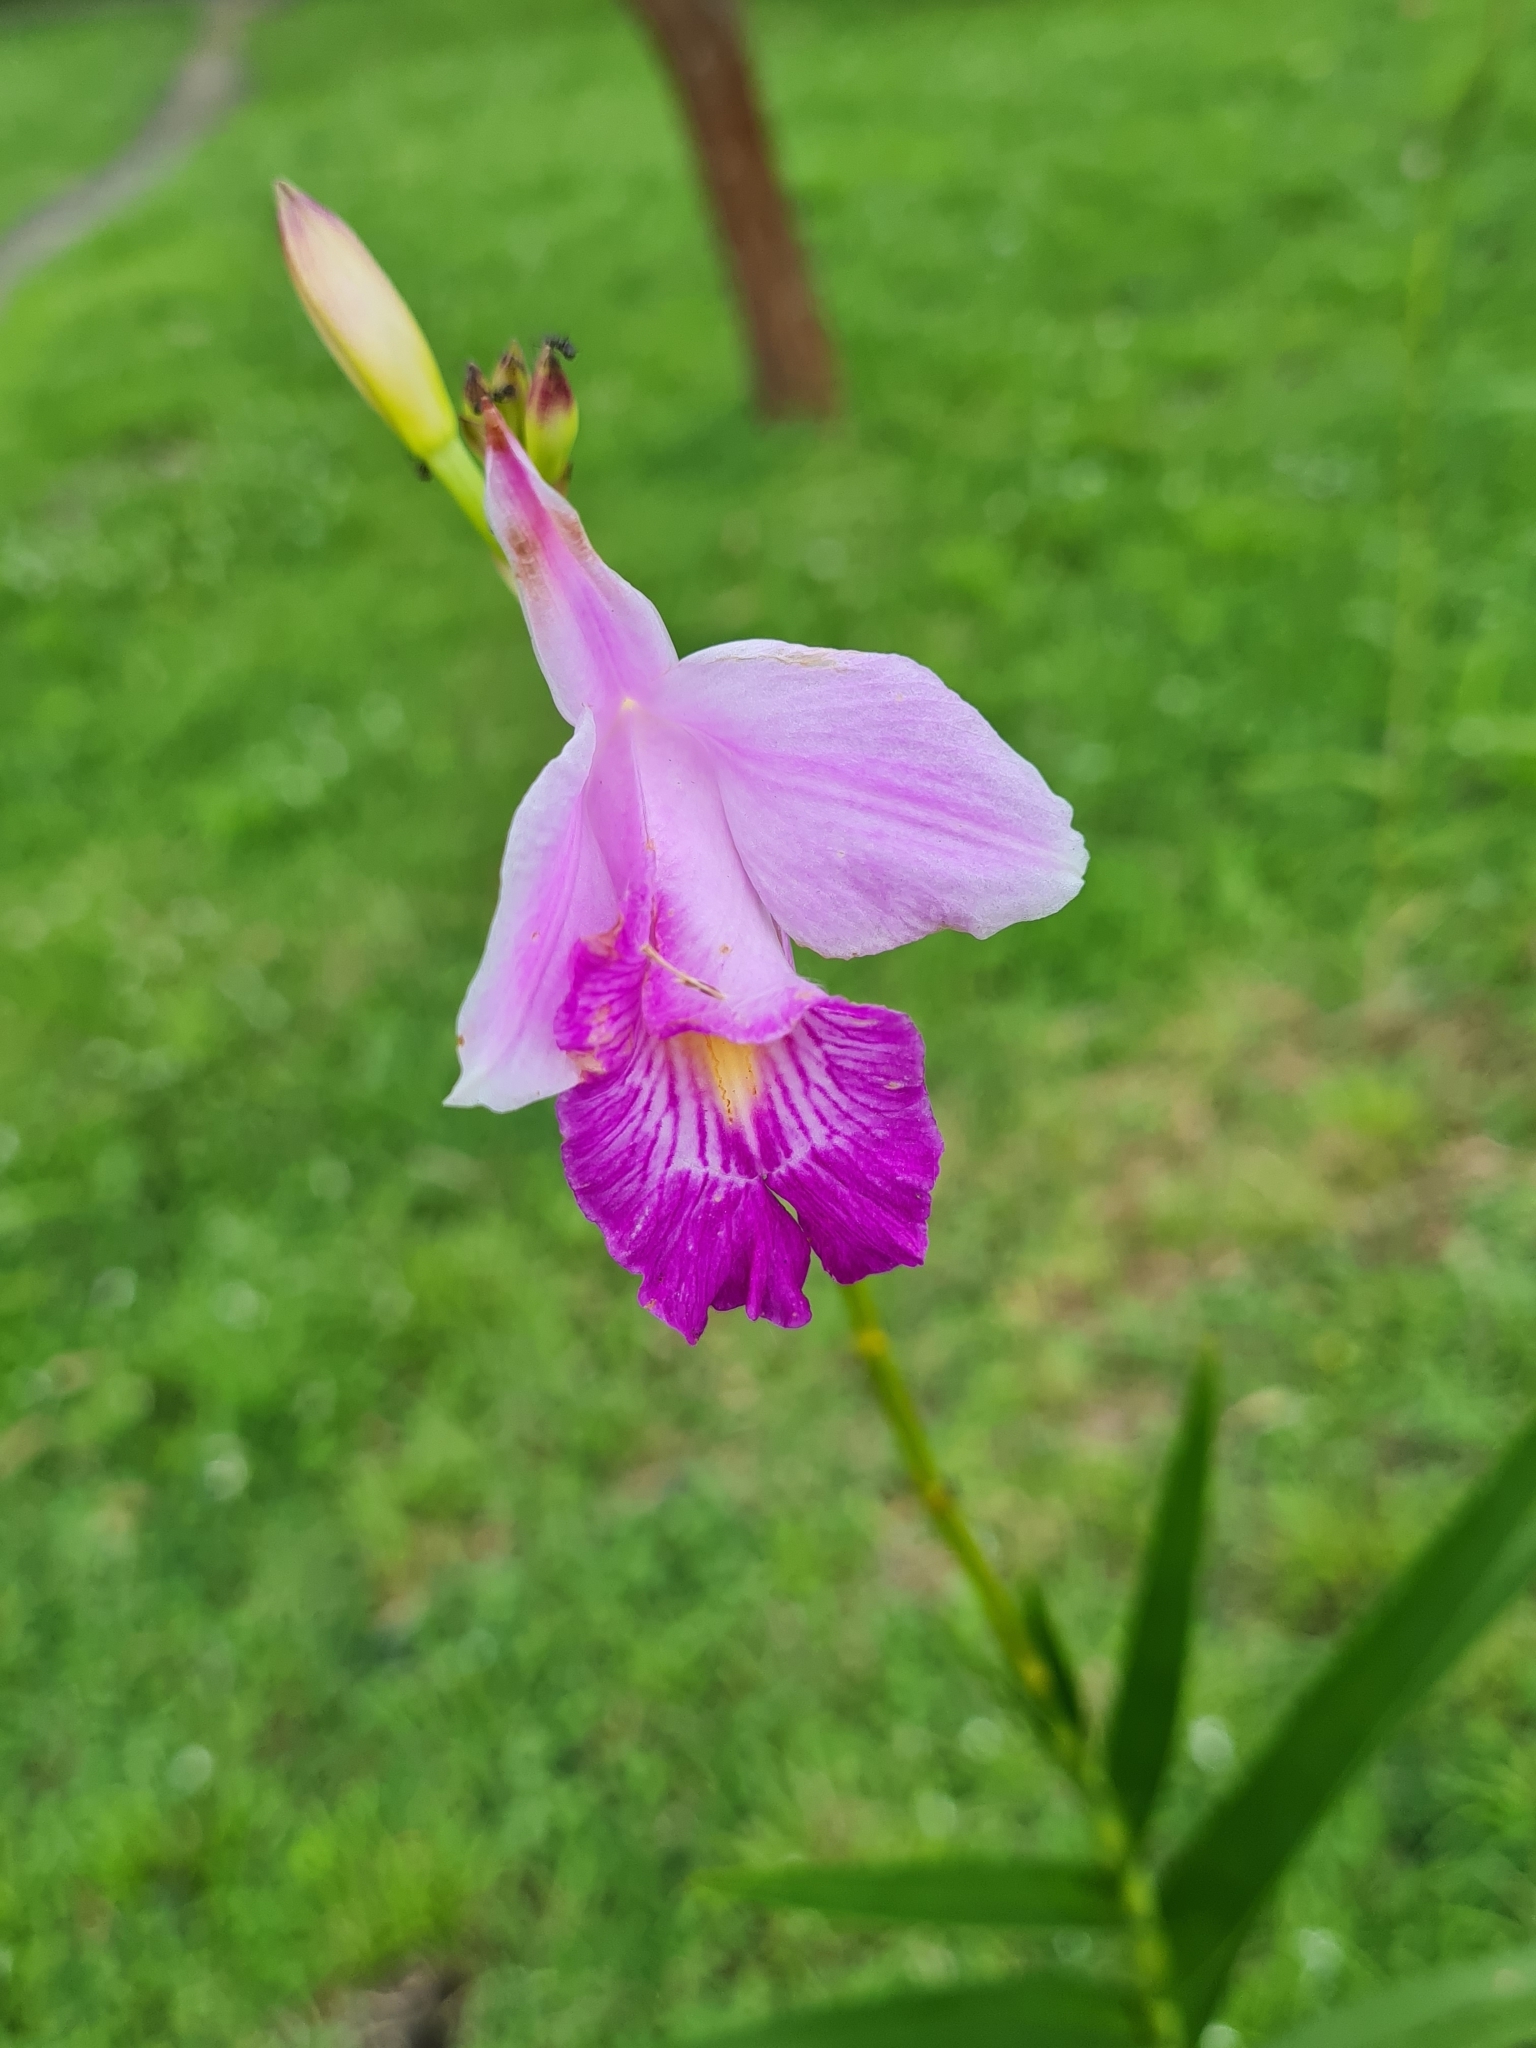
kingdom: Plantae
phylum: Tracheophyta
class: Liliopsida
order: Asparagales
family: Orchidaceae
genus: Arundina
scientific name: Arundina graminifolia
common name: Bamboo orchid
